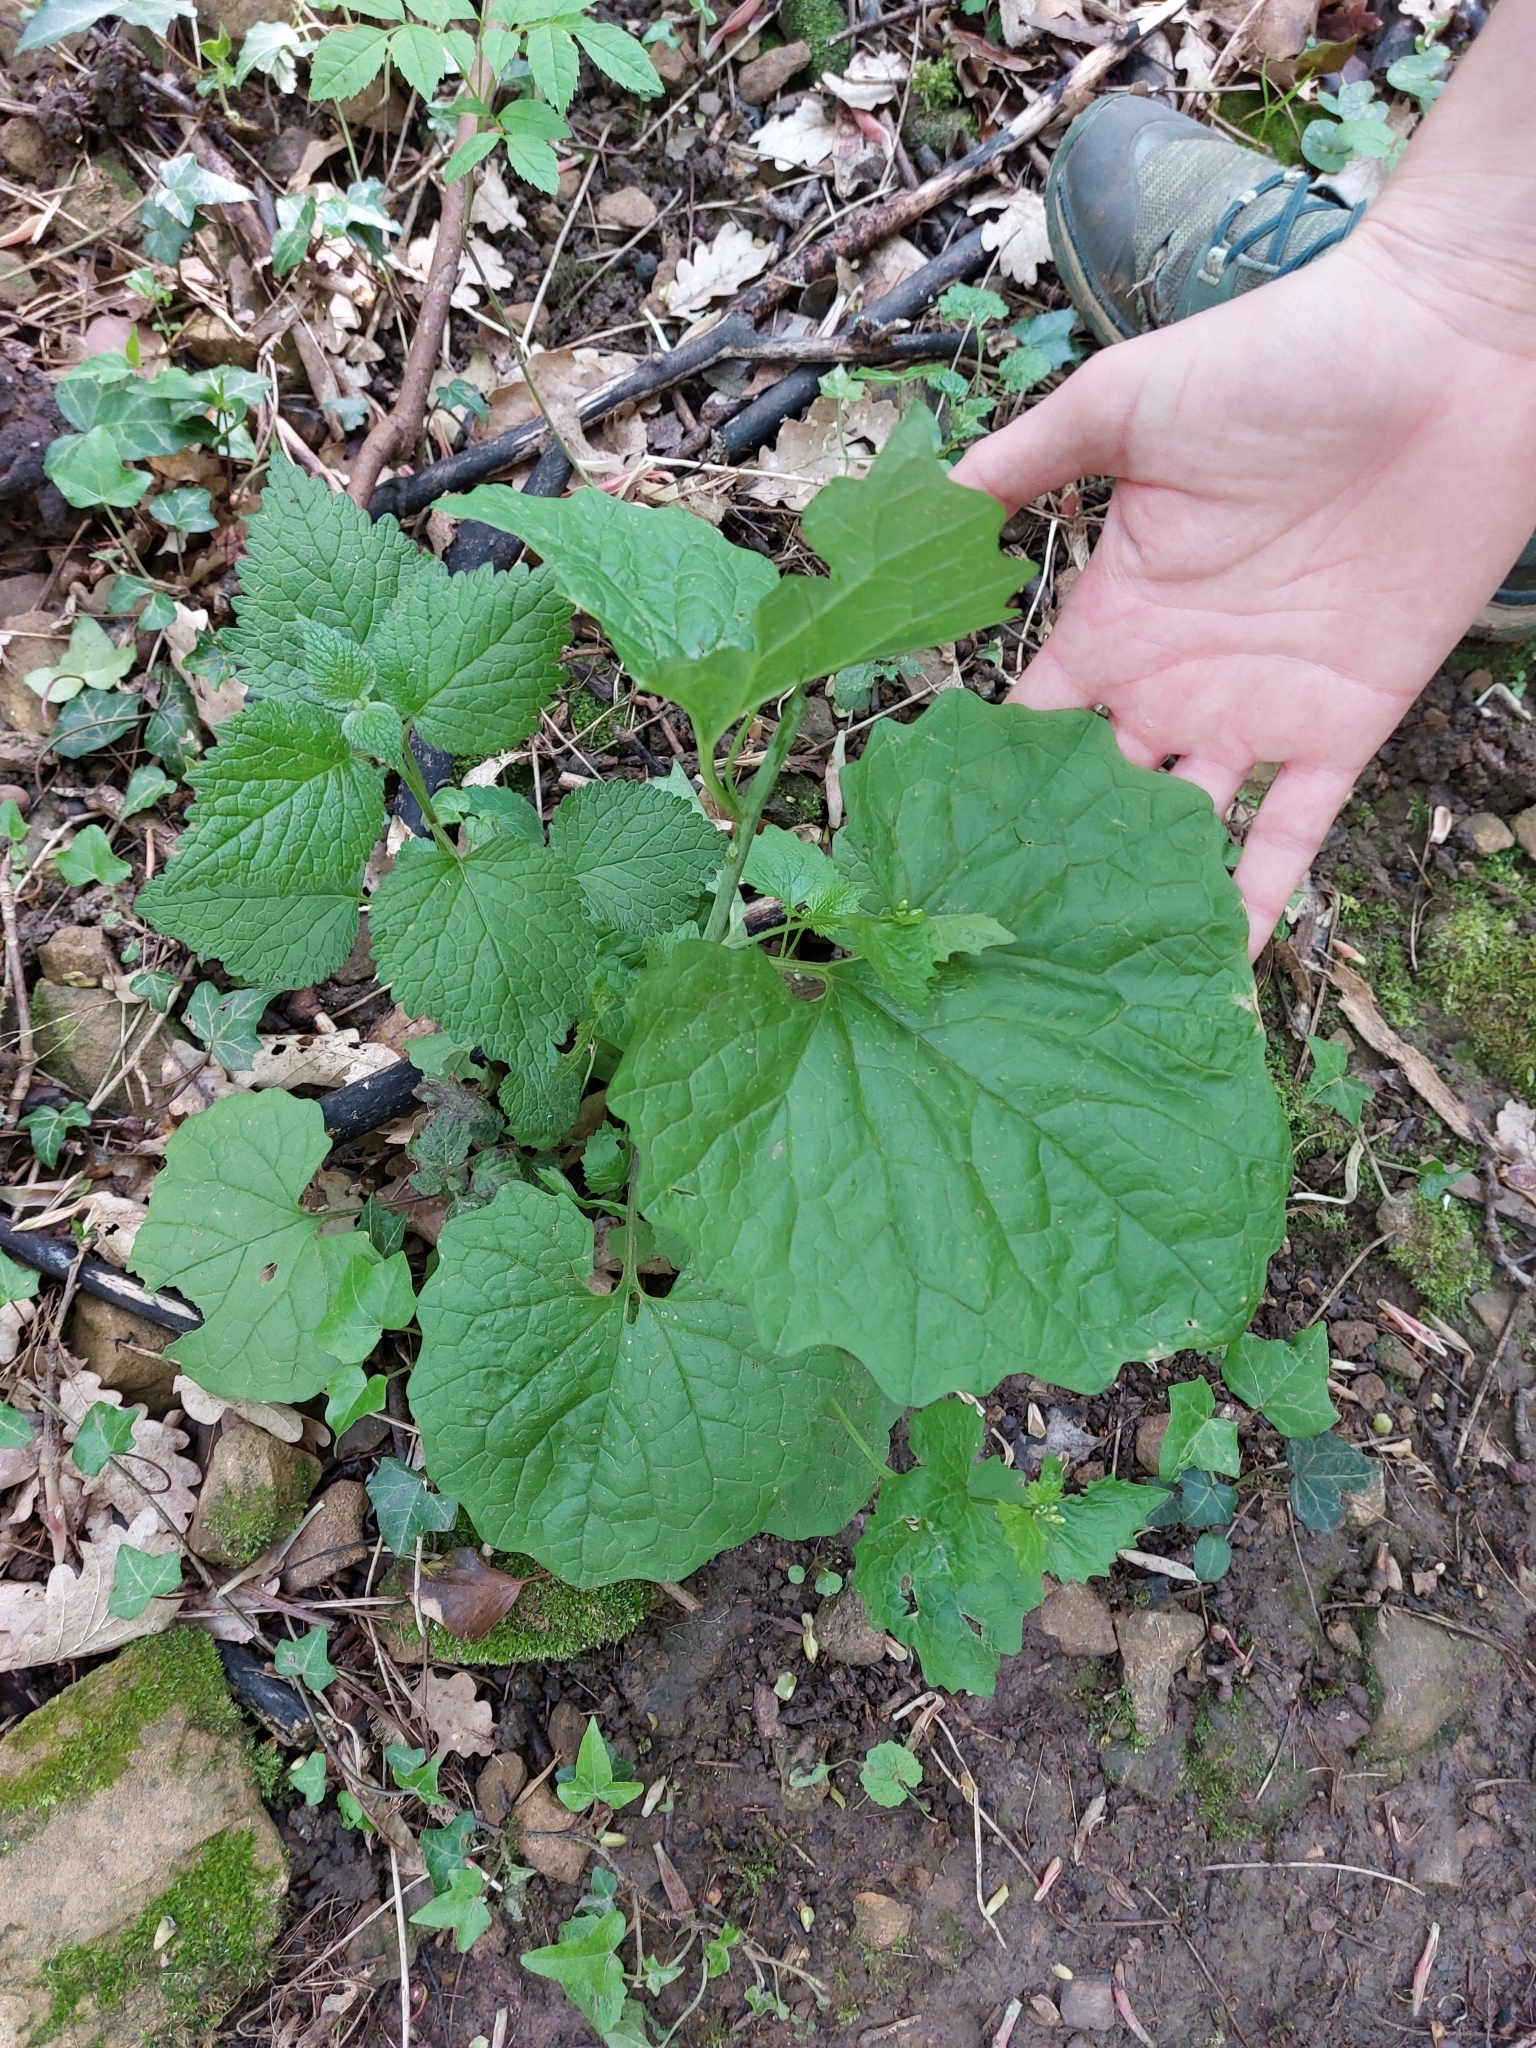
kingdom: Plantae
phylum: Tracheophyta
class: Magnoliopsida
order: Brassicales
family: Brassicaceae
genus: Alliaria
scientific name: Alliaria petiolata
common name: Garlic mustard
